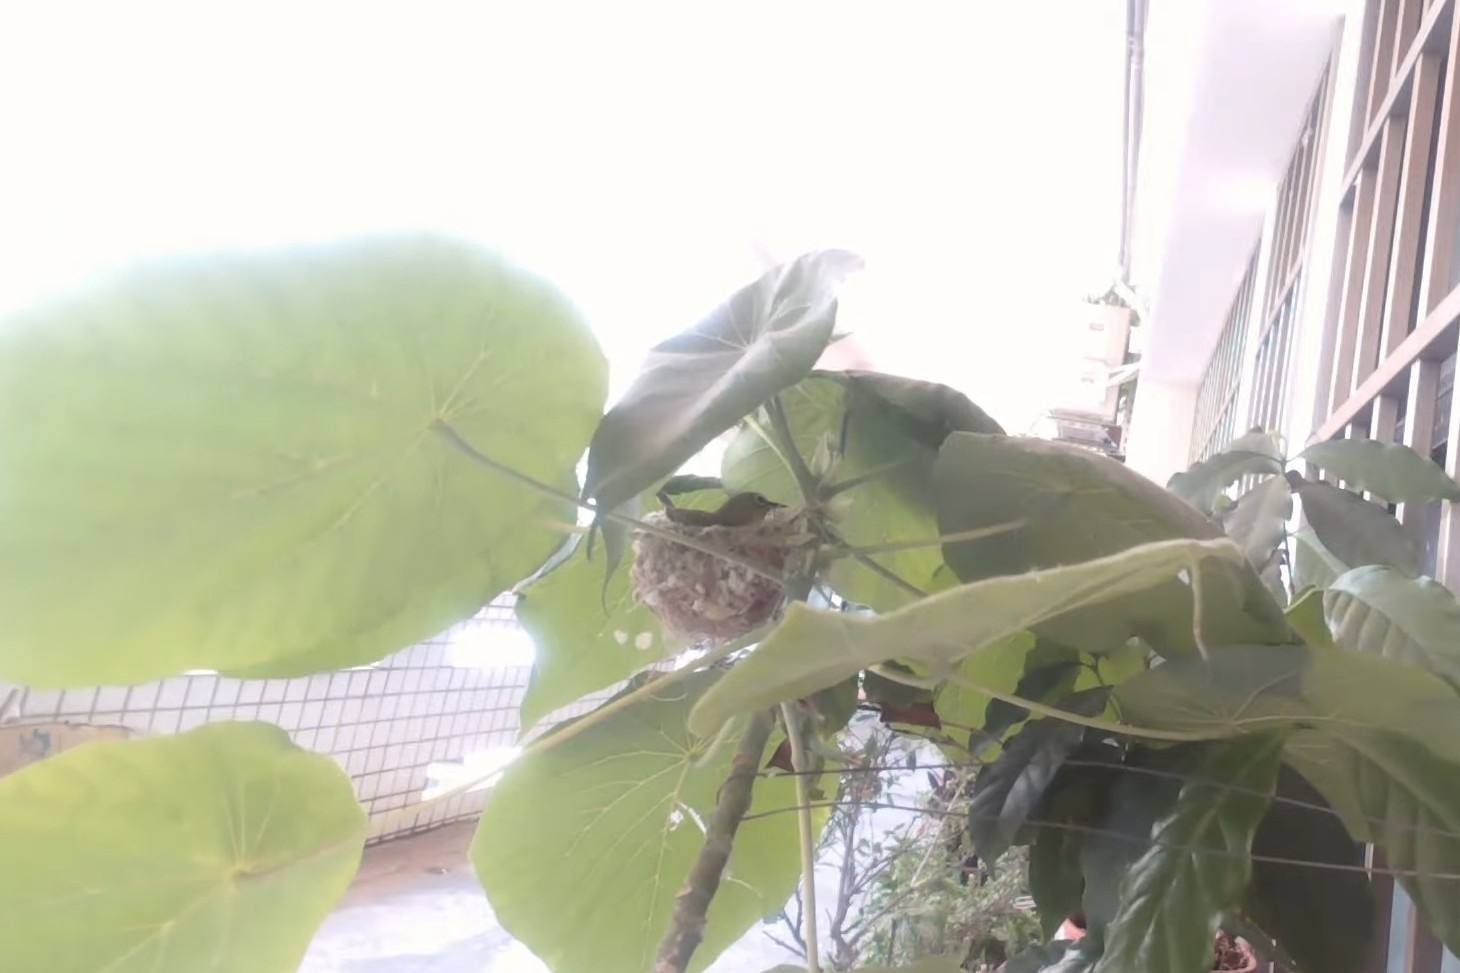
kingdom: Animalia
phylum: Chordata
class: Aves
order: Passeriformes
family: Zosteropidae
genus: Zosterops
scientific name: Zosterops simplex
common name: Swinhoe's white-eye
